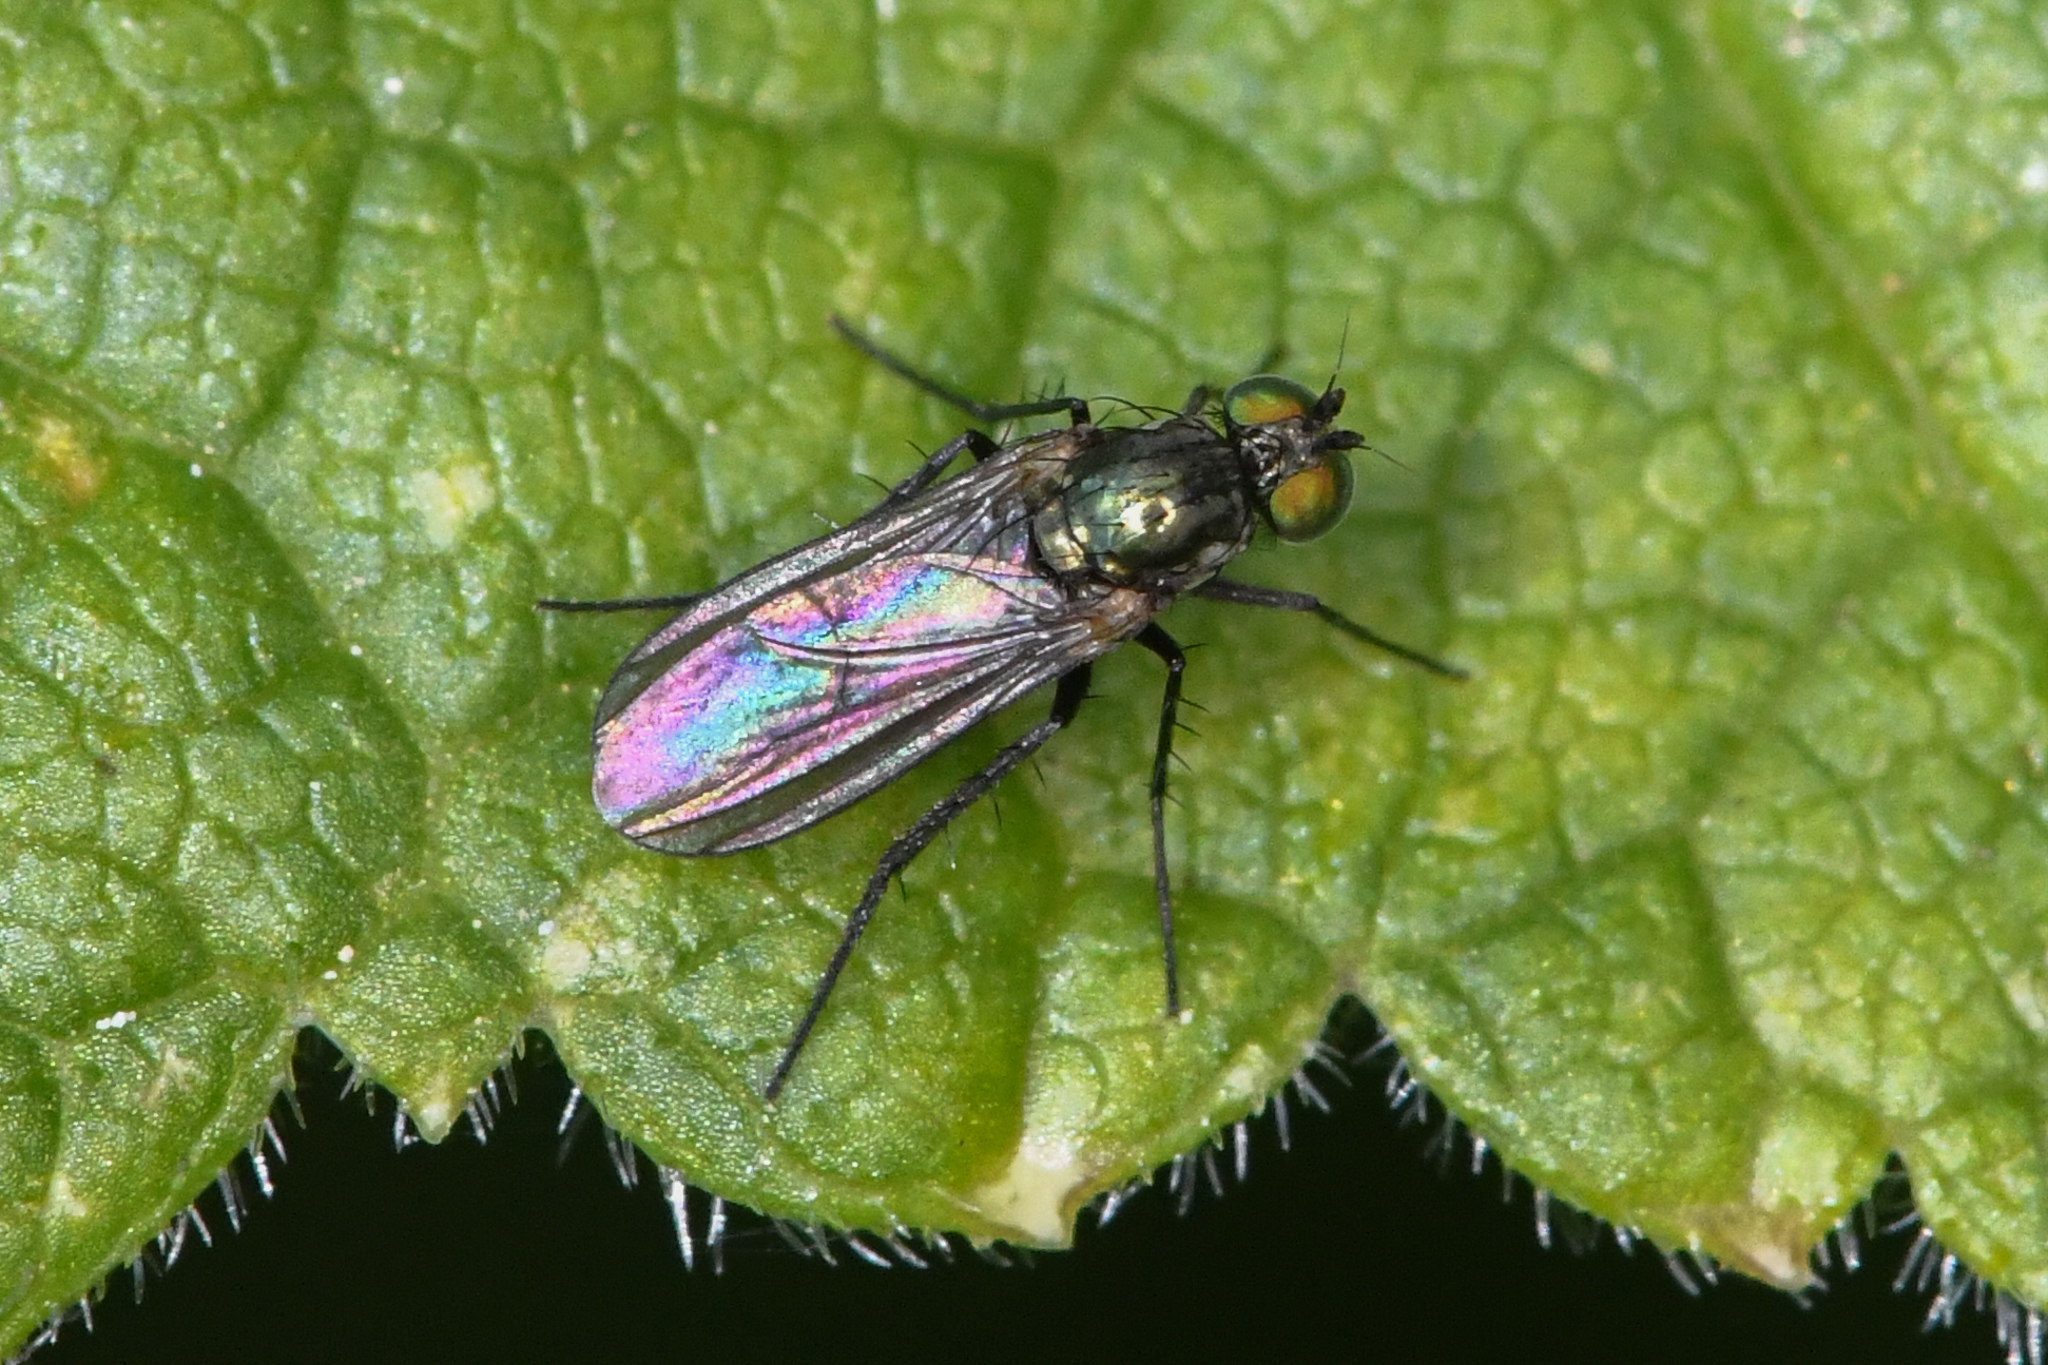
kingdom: Animalia
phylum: Arthropoda
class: Insecta
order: Diptera
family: Dolichopodidae
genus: Hercostomus
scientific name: Hercostomus unicolor
